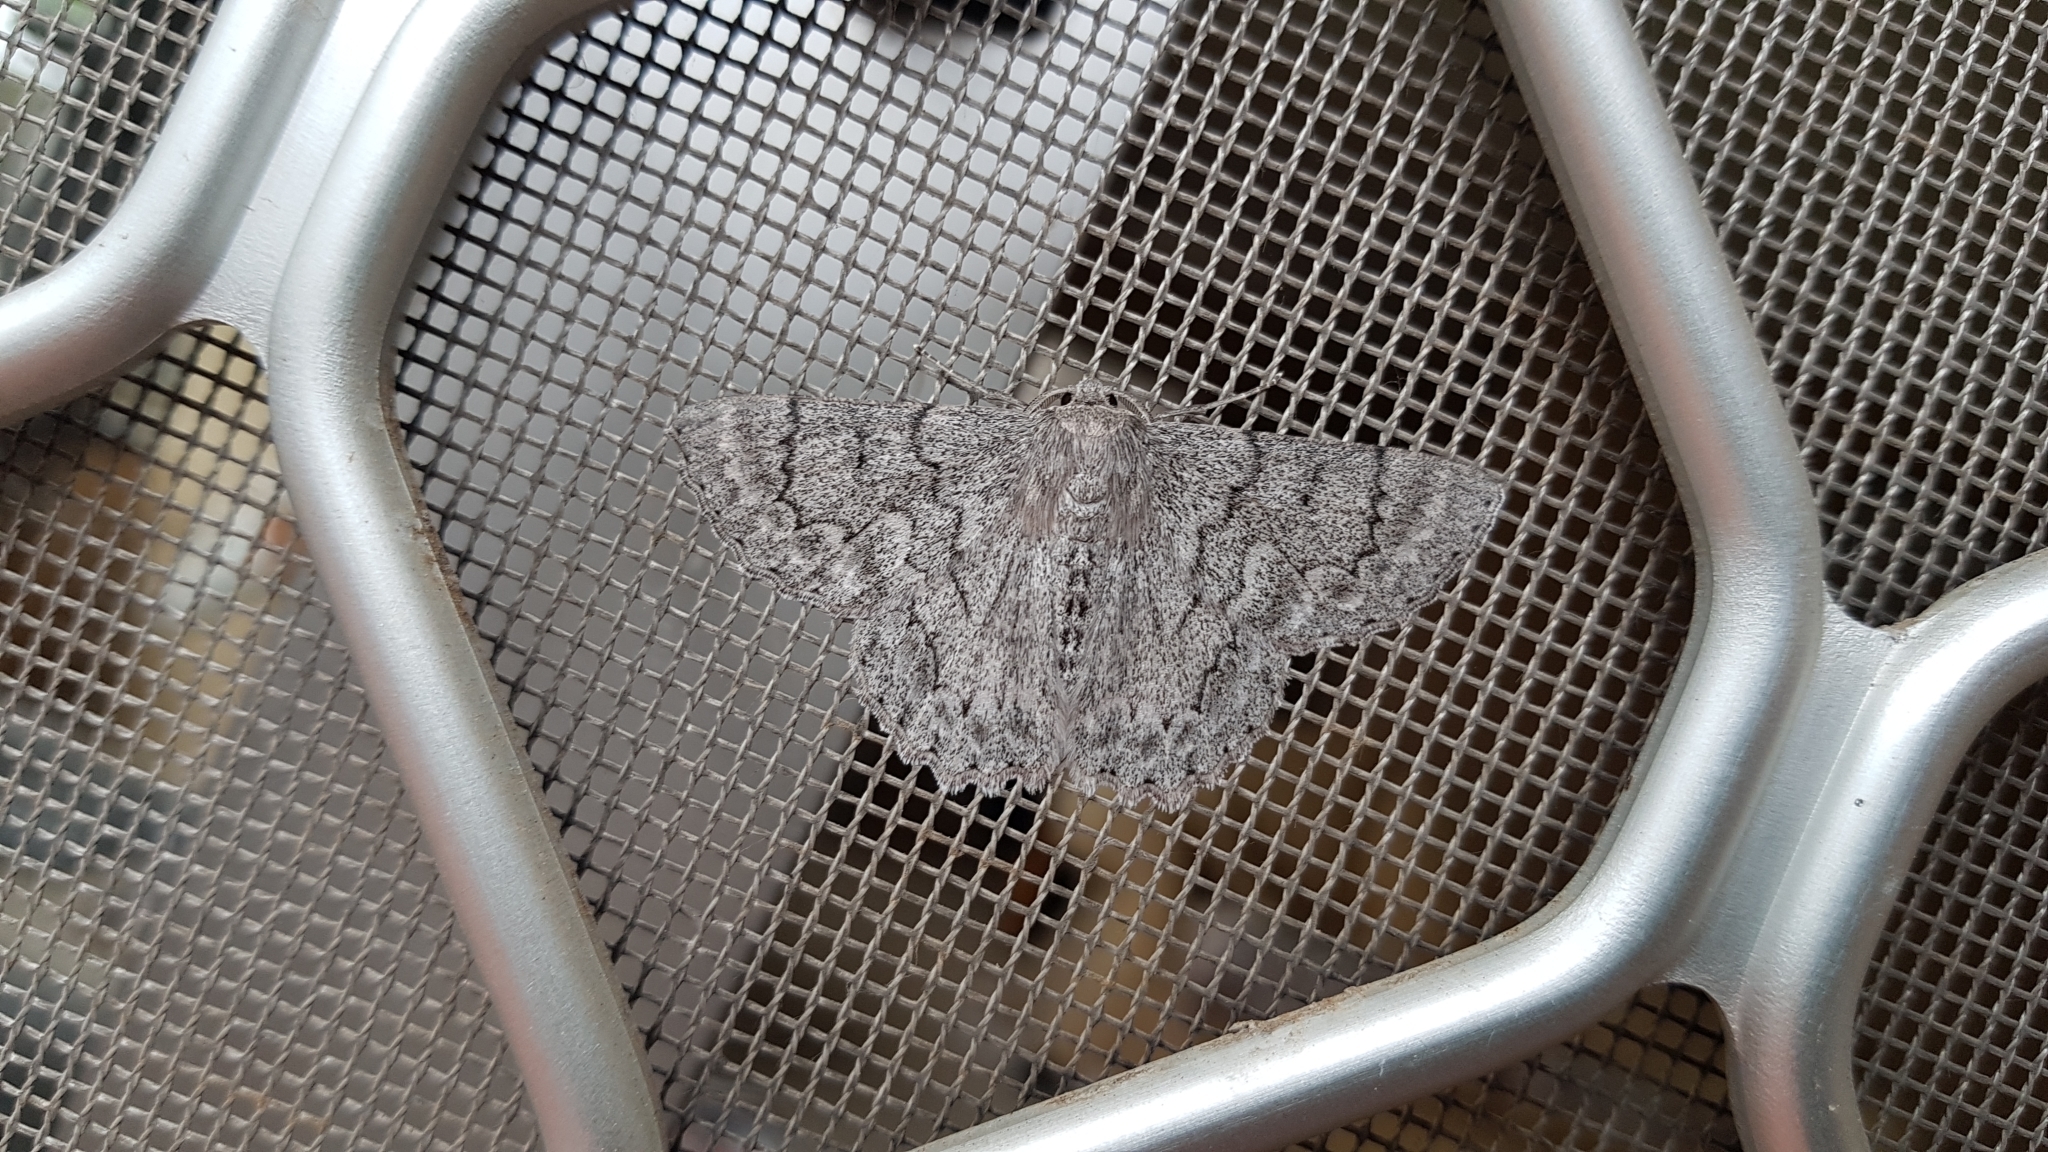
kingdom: Animalia
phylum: Arthropoda
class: Insecta
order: Lepidoptera
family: Geometridae
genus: Crypsiphona
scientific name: Crypsiphona ocultaria
